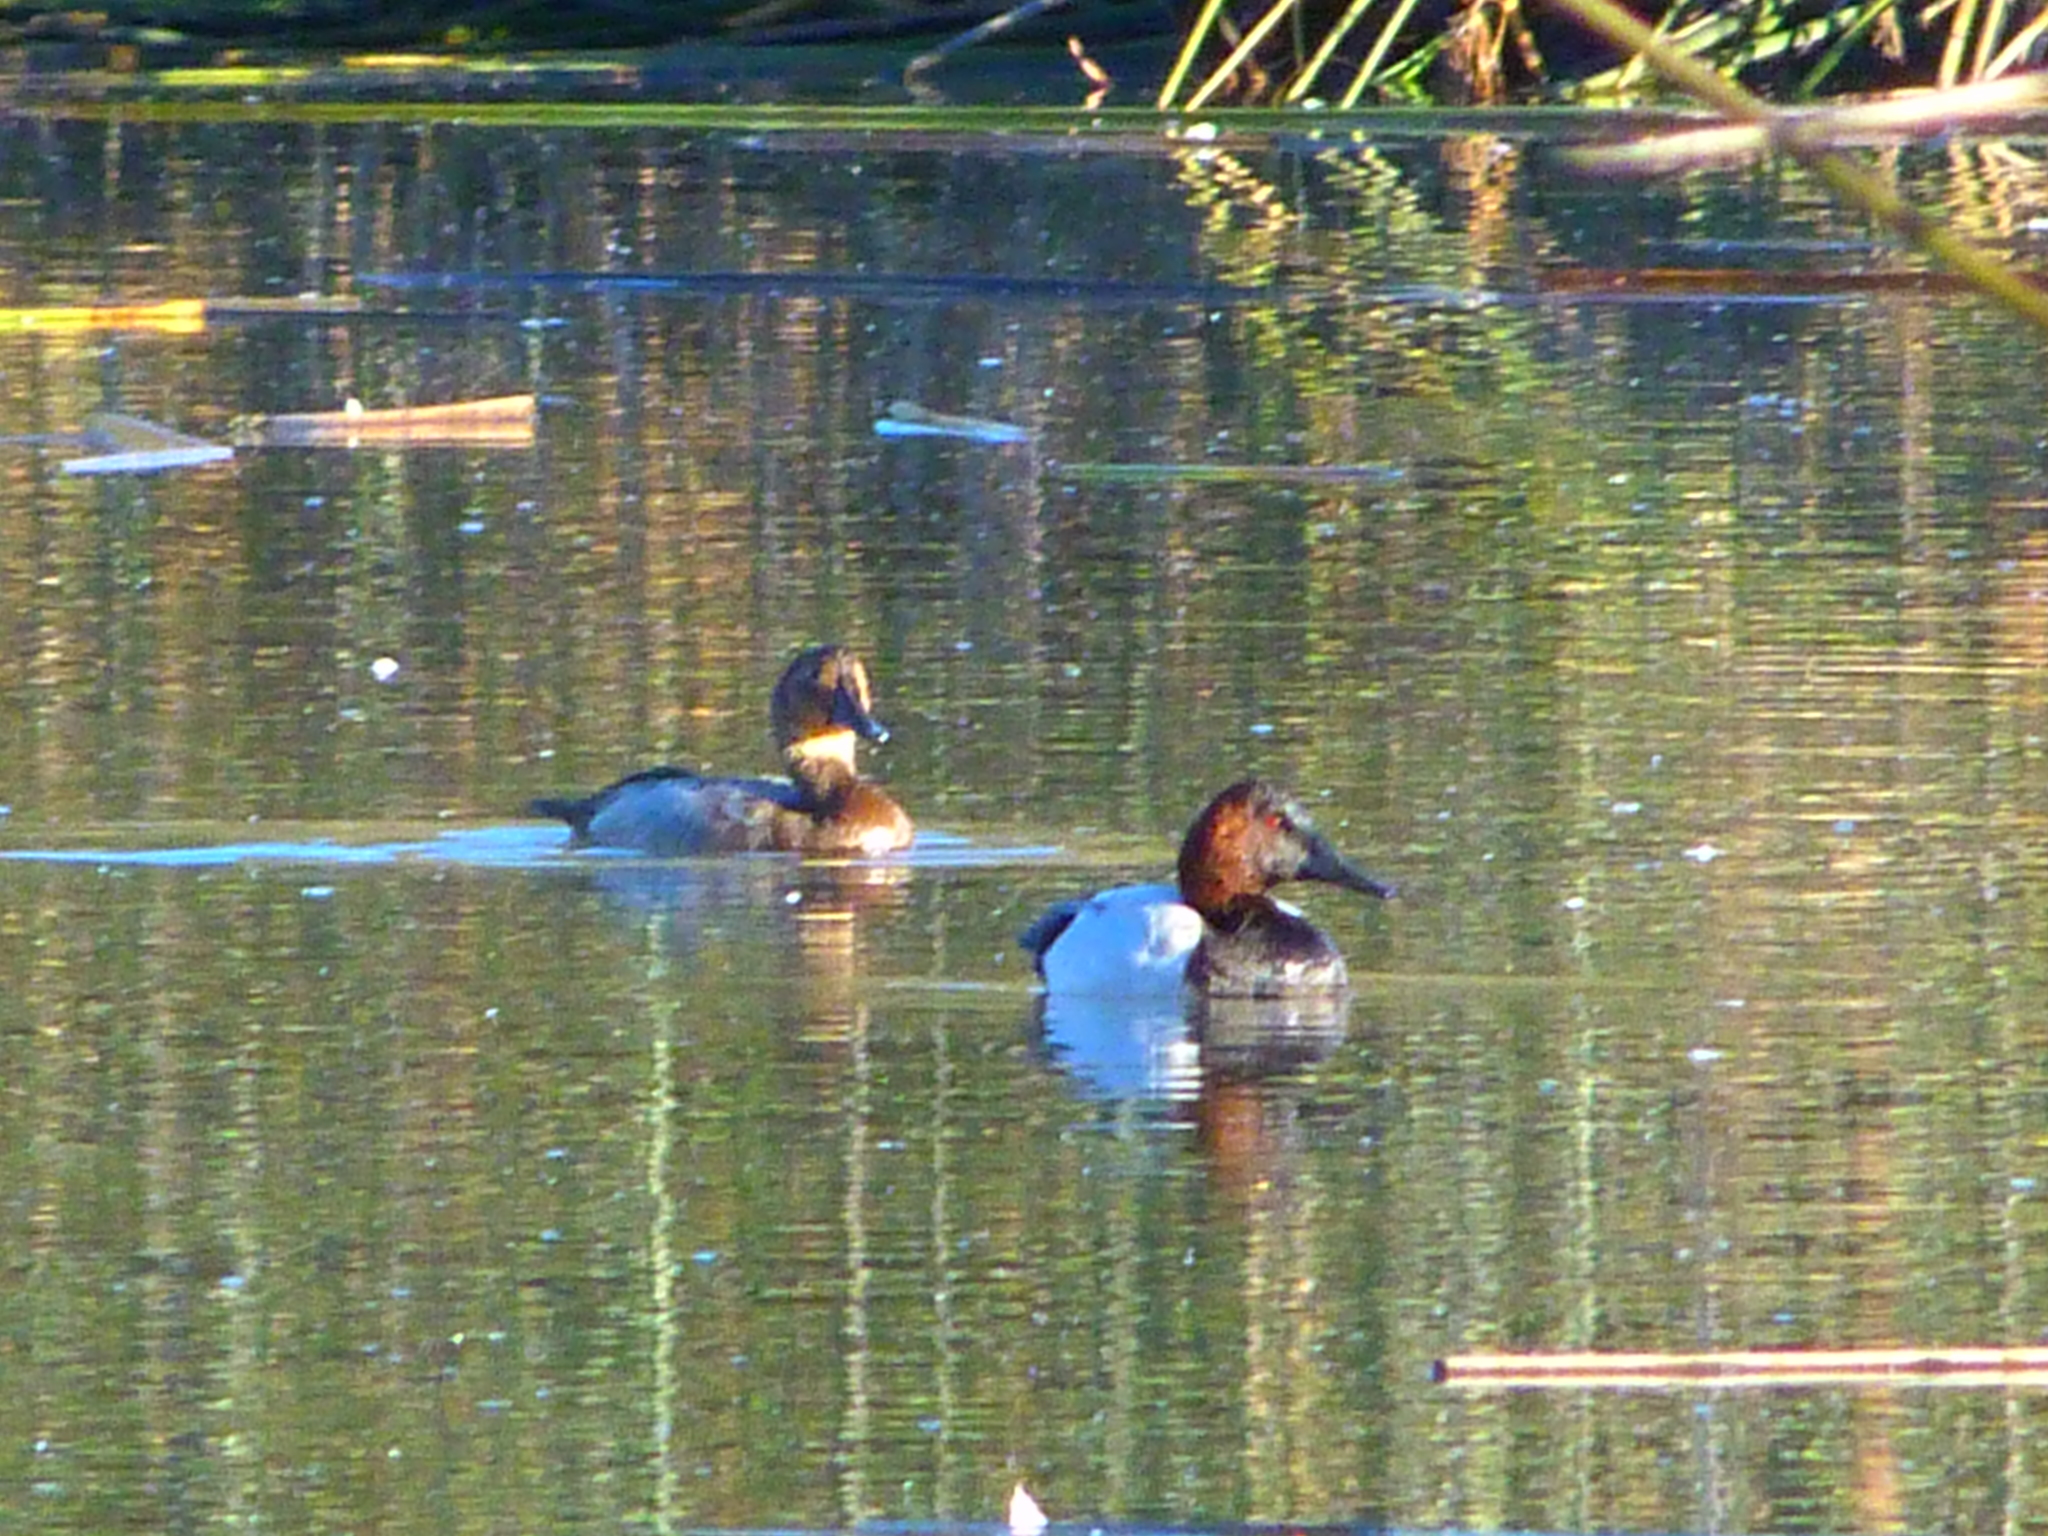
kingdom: Animalia
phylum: Chordata
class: Aves
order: Anseriformes
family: Anatidae
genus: Aythya
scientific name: Aythya valisineria
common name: Canvasback
